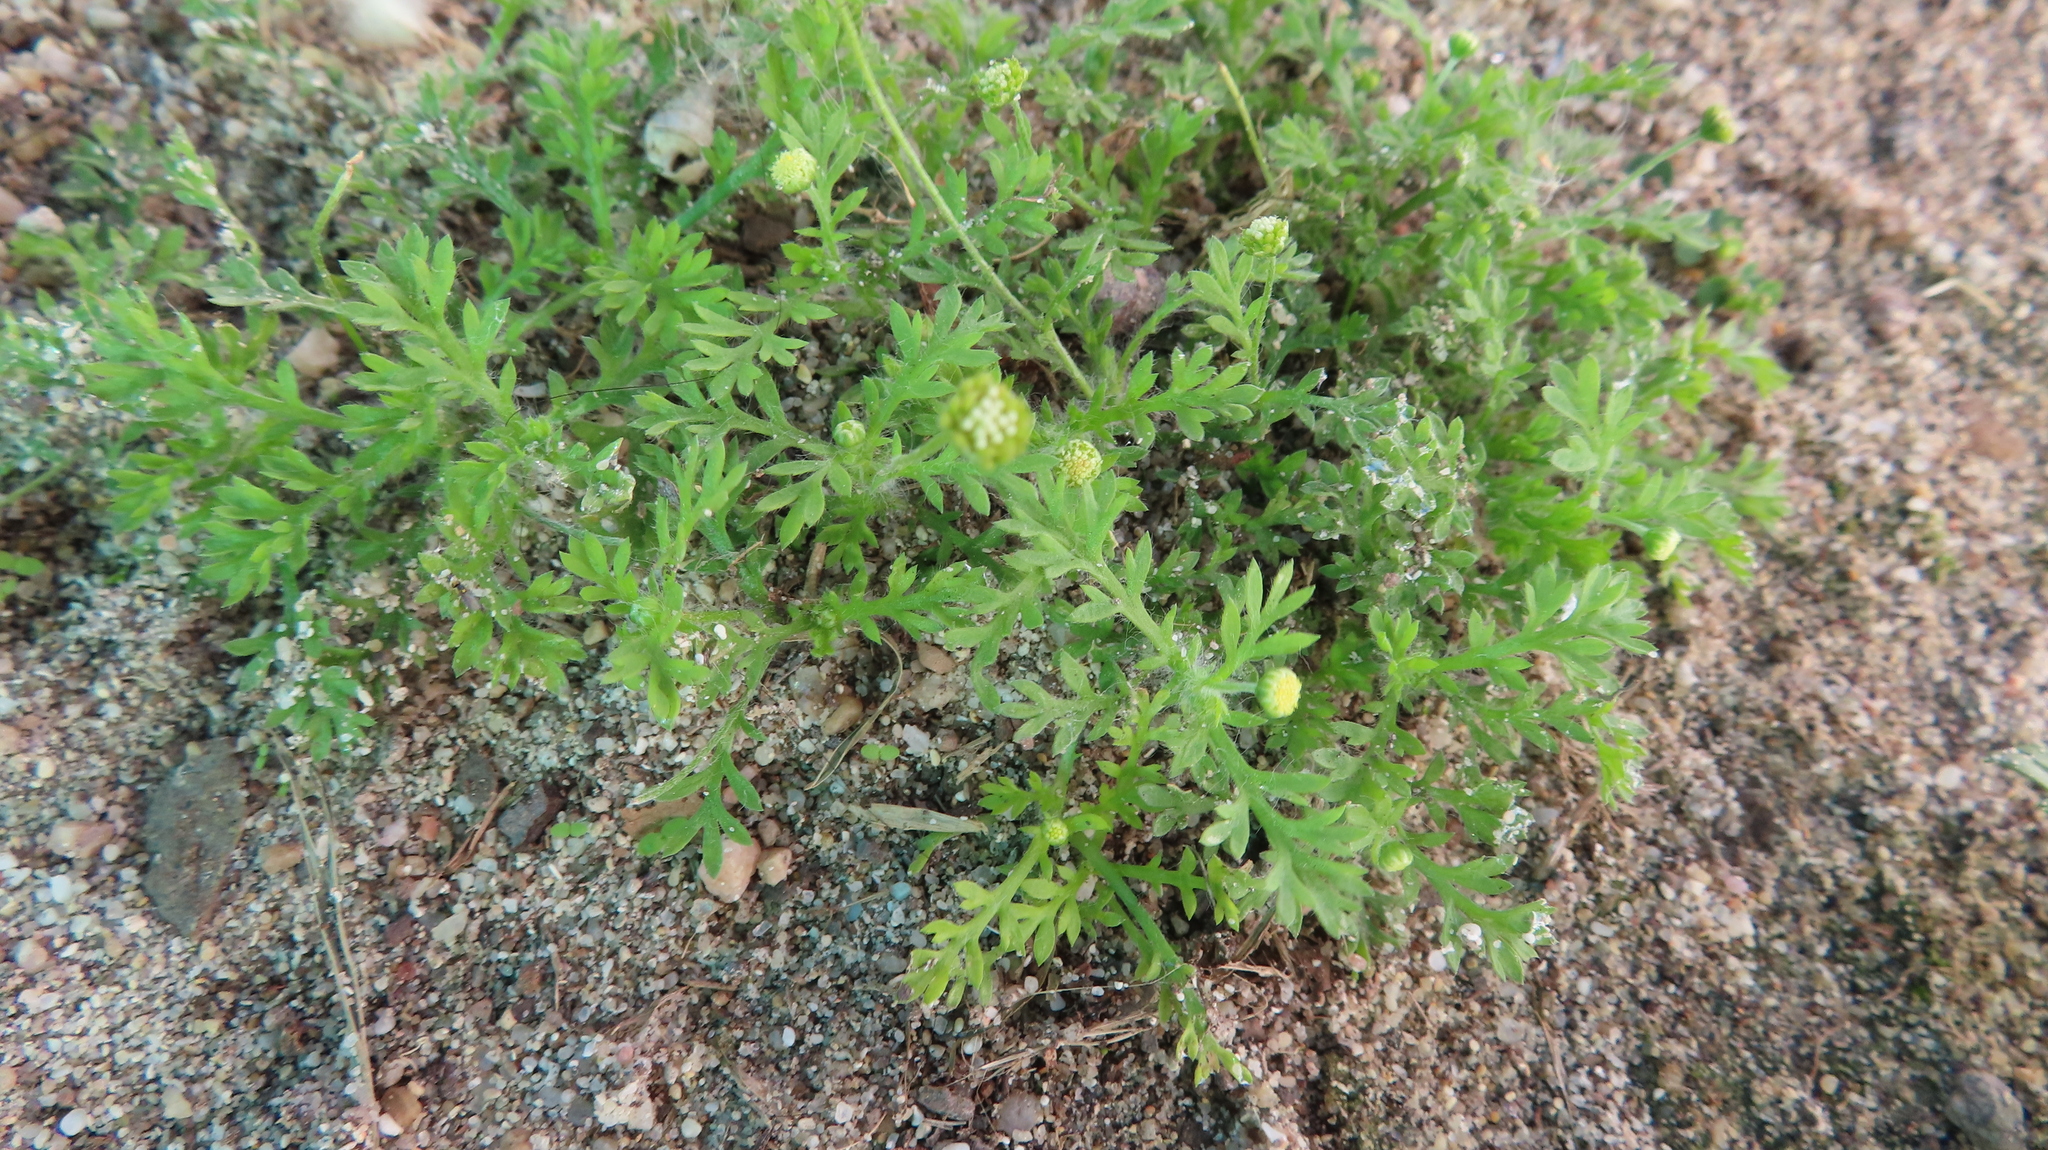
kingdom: Plantae
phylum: Tracheophyta
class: Magnoliopsida
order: Asterales
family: Asteraceae
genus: Cotula
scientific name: Cotula australis
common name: Australian waterbuttons
